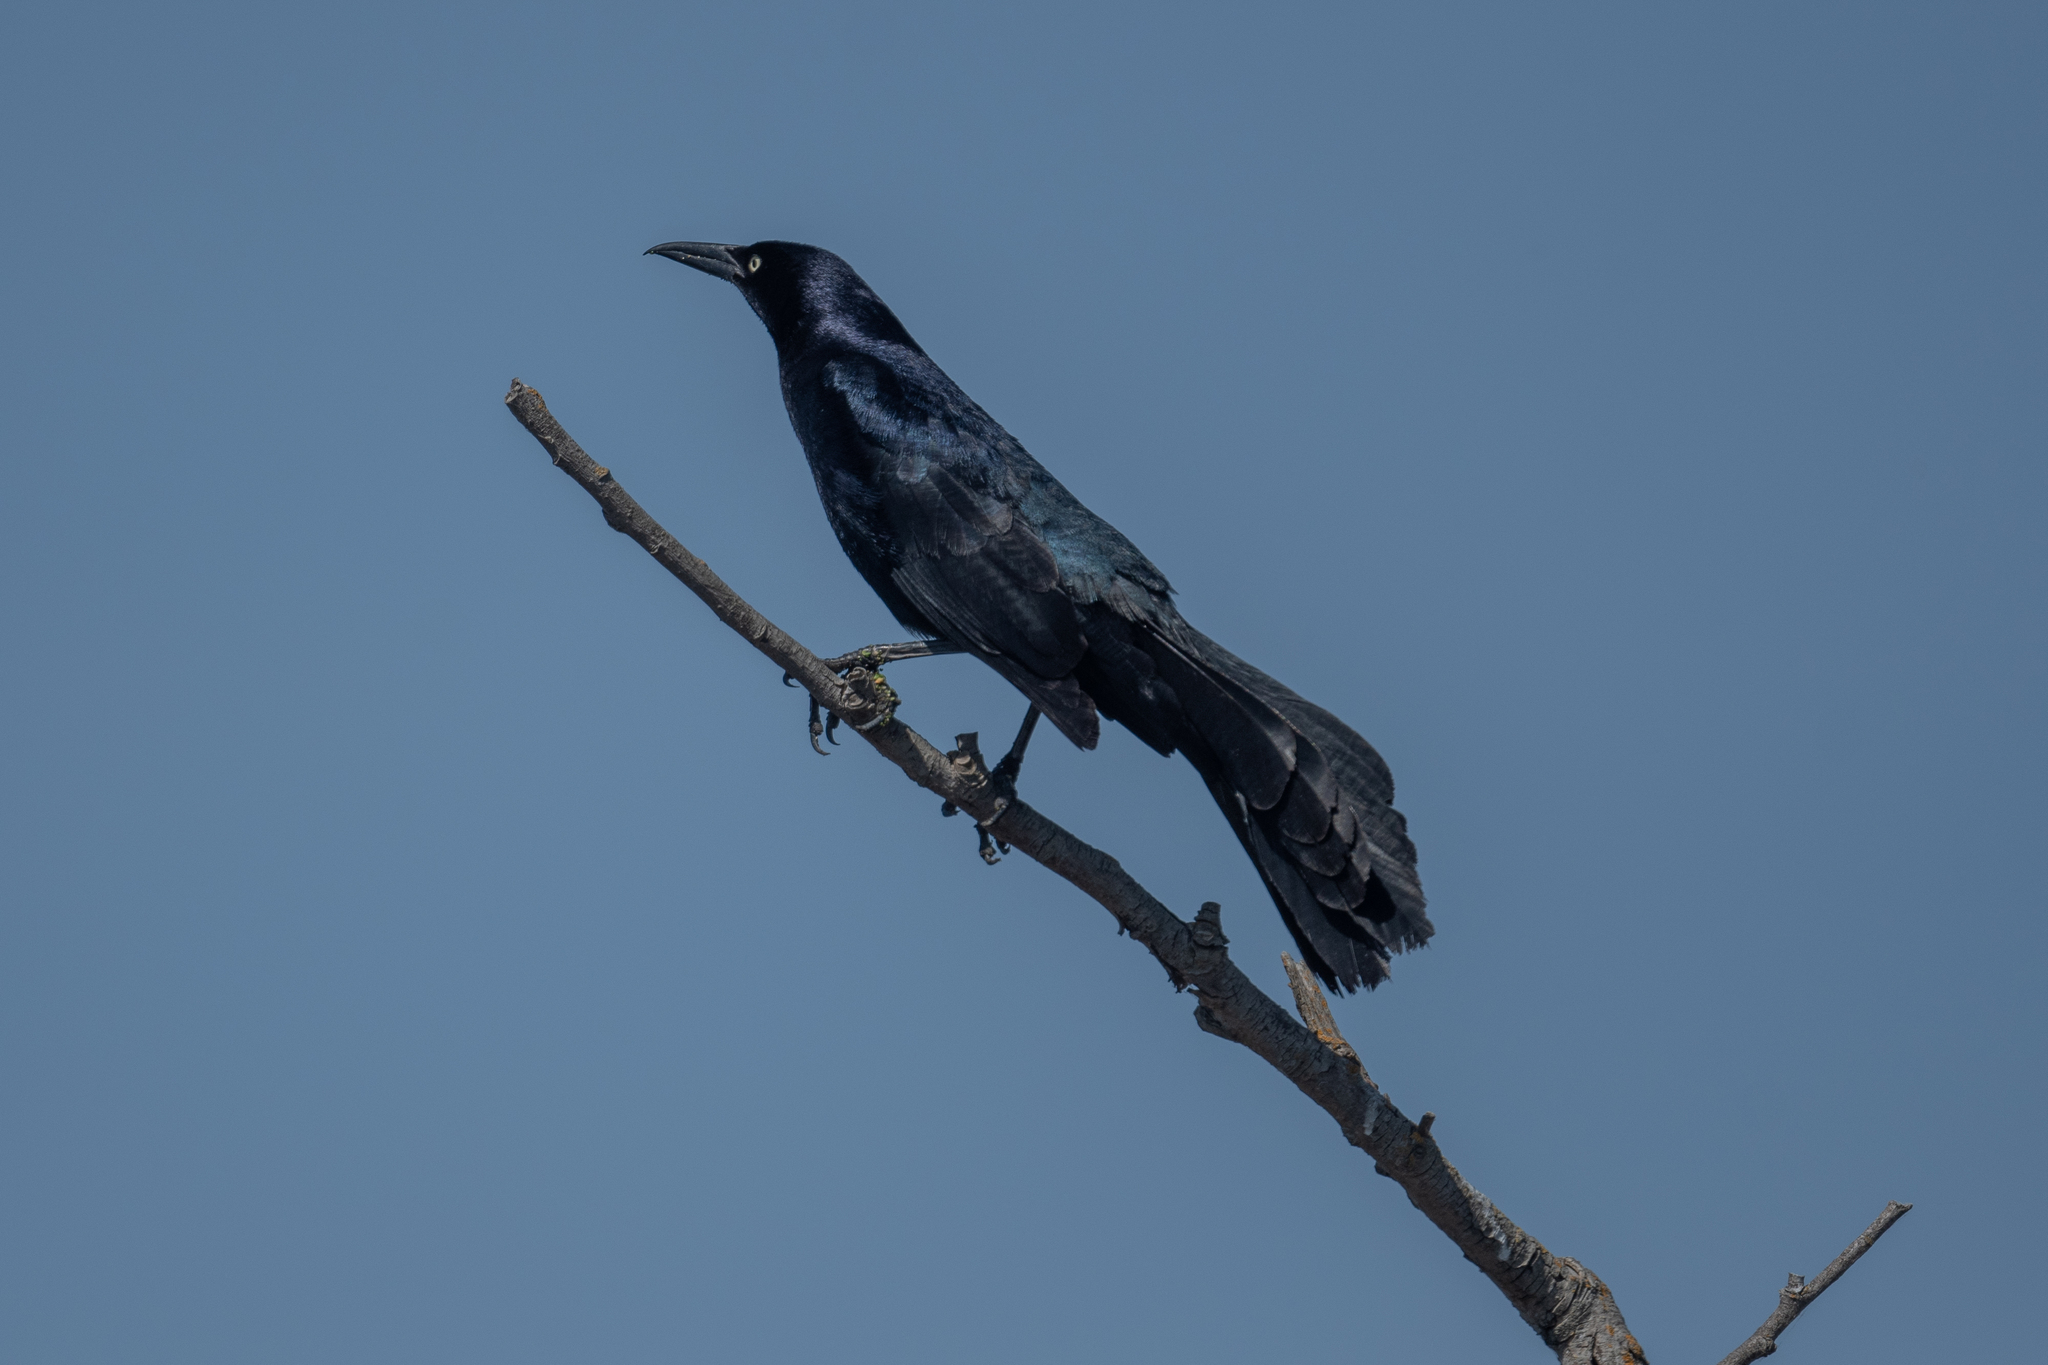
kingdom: Animalia
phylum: Chordata
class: Aves
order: Passeriformes
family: Icteridae
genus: Quiscalus
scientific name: Quiscalus mexicanus
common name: Great-tailed grackle
